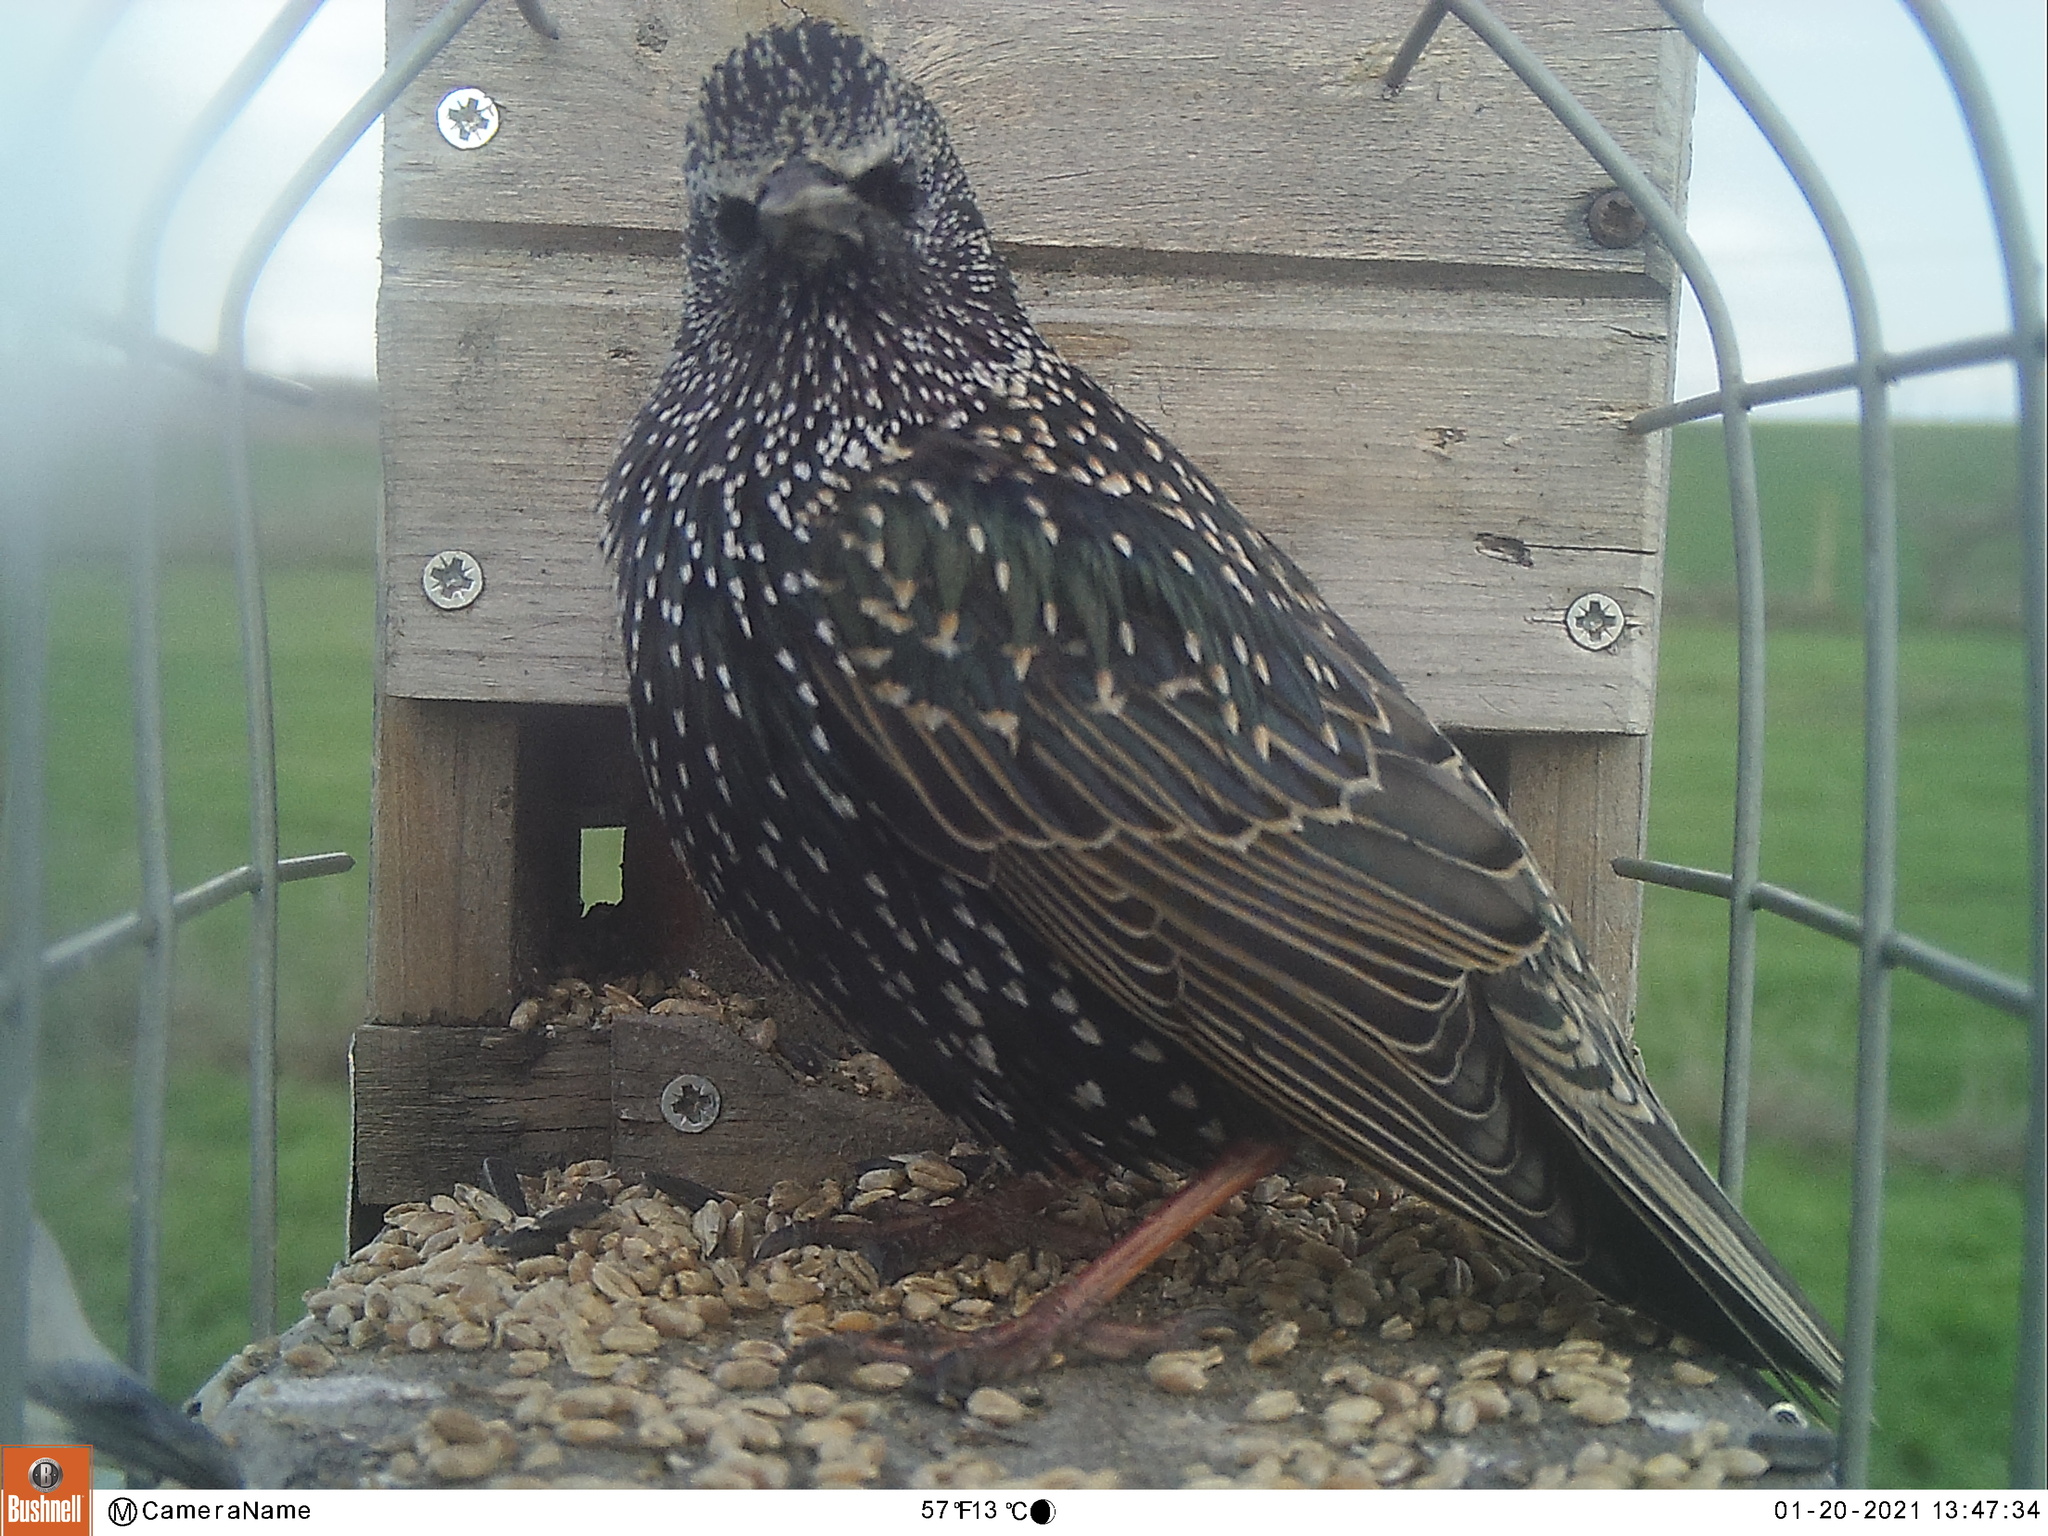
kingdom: Animalia
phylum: Chordata
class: Aves
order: Passeriformes
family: Sturnidae
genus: Sturnus
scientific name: Sturnus vulgaris
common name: Common starling
